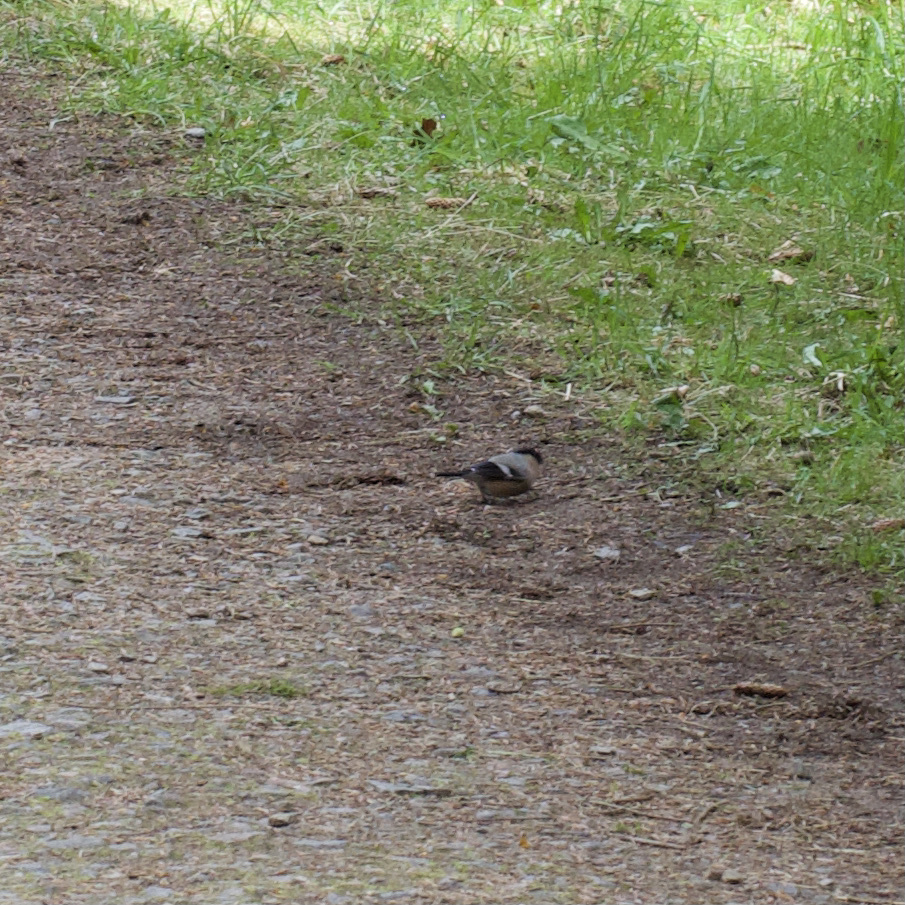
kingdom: Animalia
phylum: Chordata
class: Aves
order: Passeriformes
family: Fringillidae
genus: Pyrrhula
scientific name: Pyrrhula pyrrhula
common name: Eurasian bullfinch
